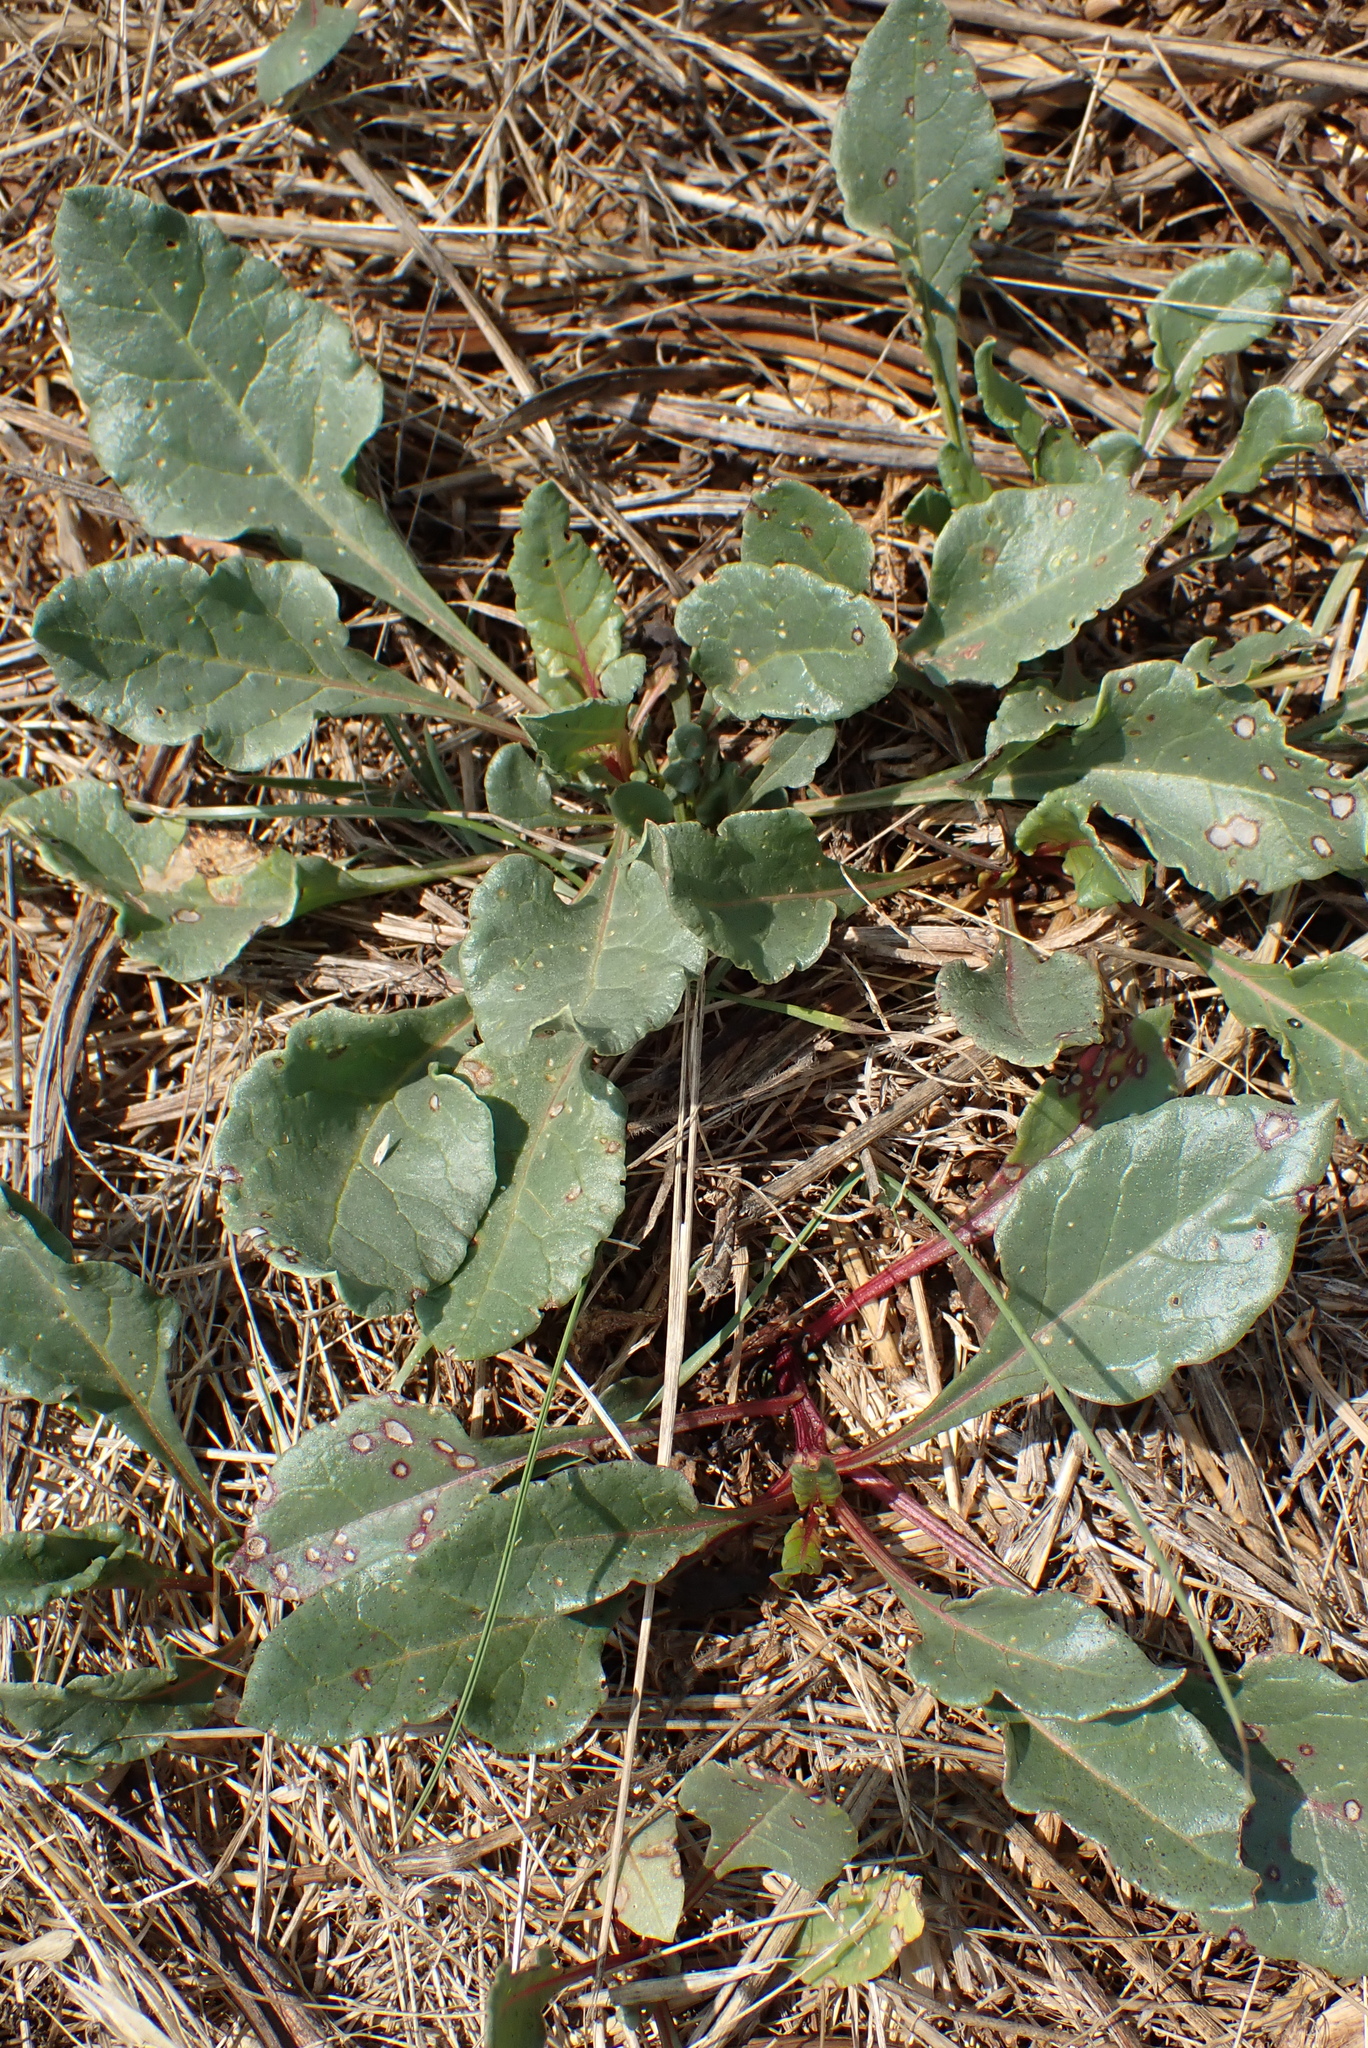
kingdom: Plantae
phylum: Tracheophyta
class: Magnoliopsida
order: Caryophyllales
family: Amaranthaceae
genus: Beta
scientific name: Beta vulgaris
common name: Beet
